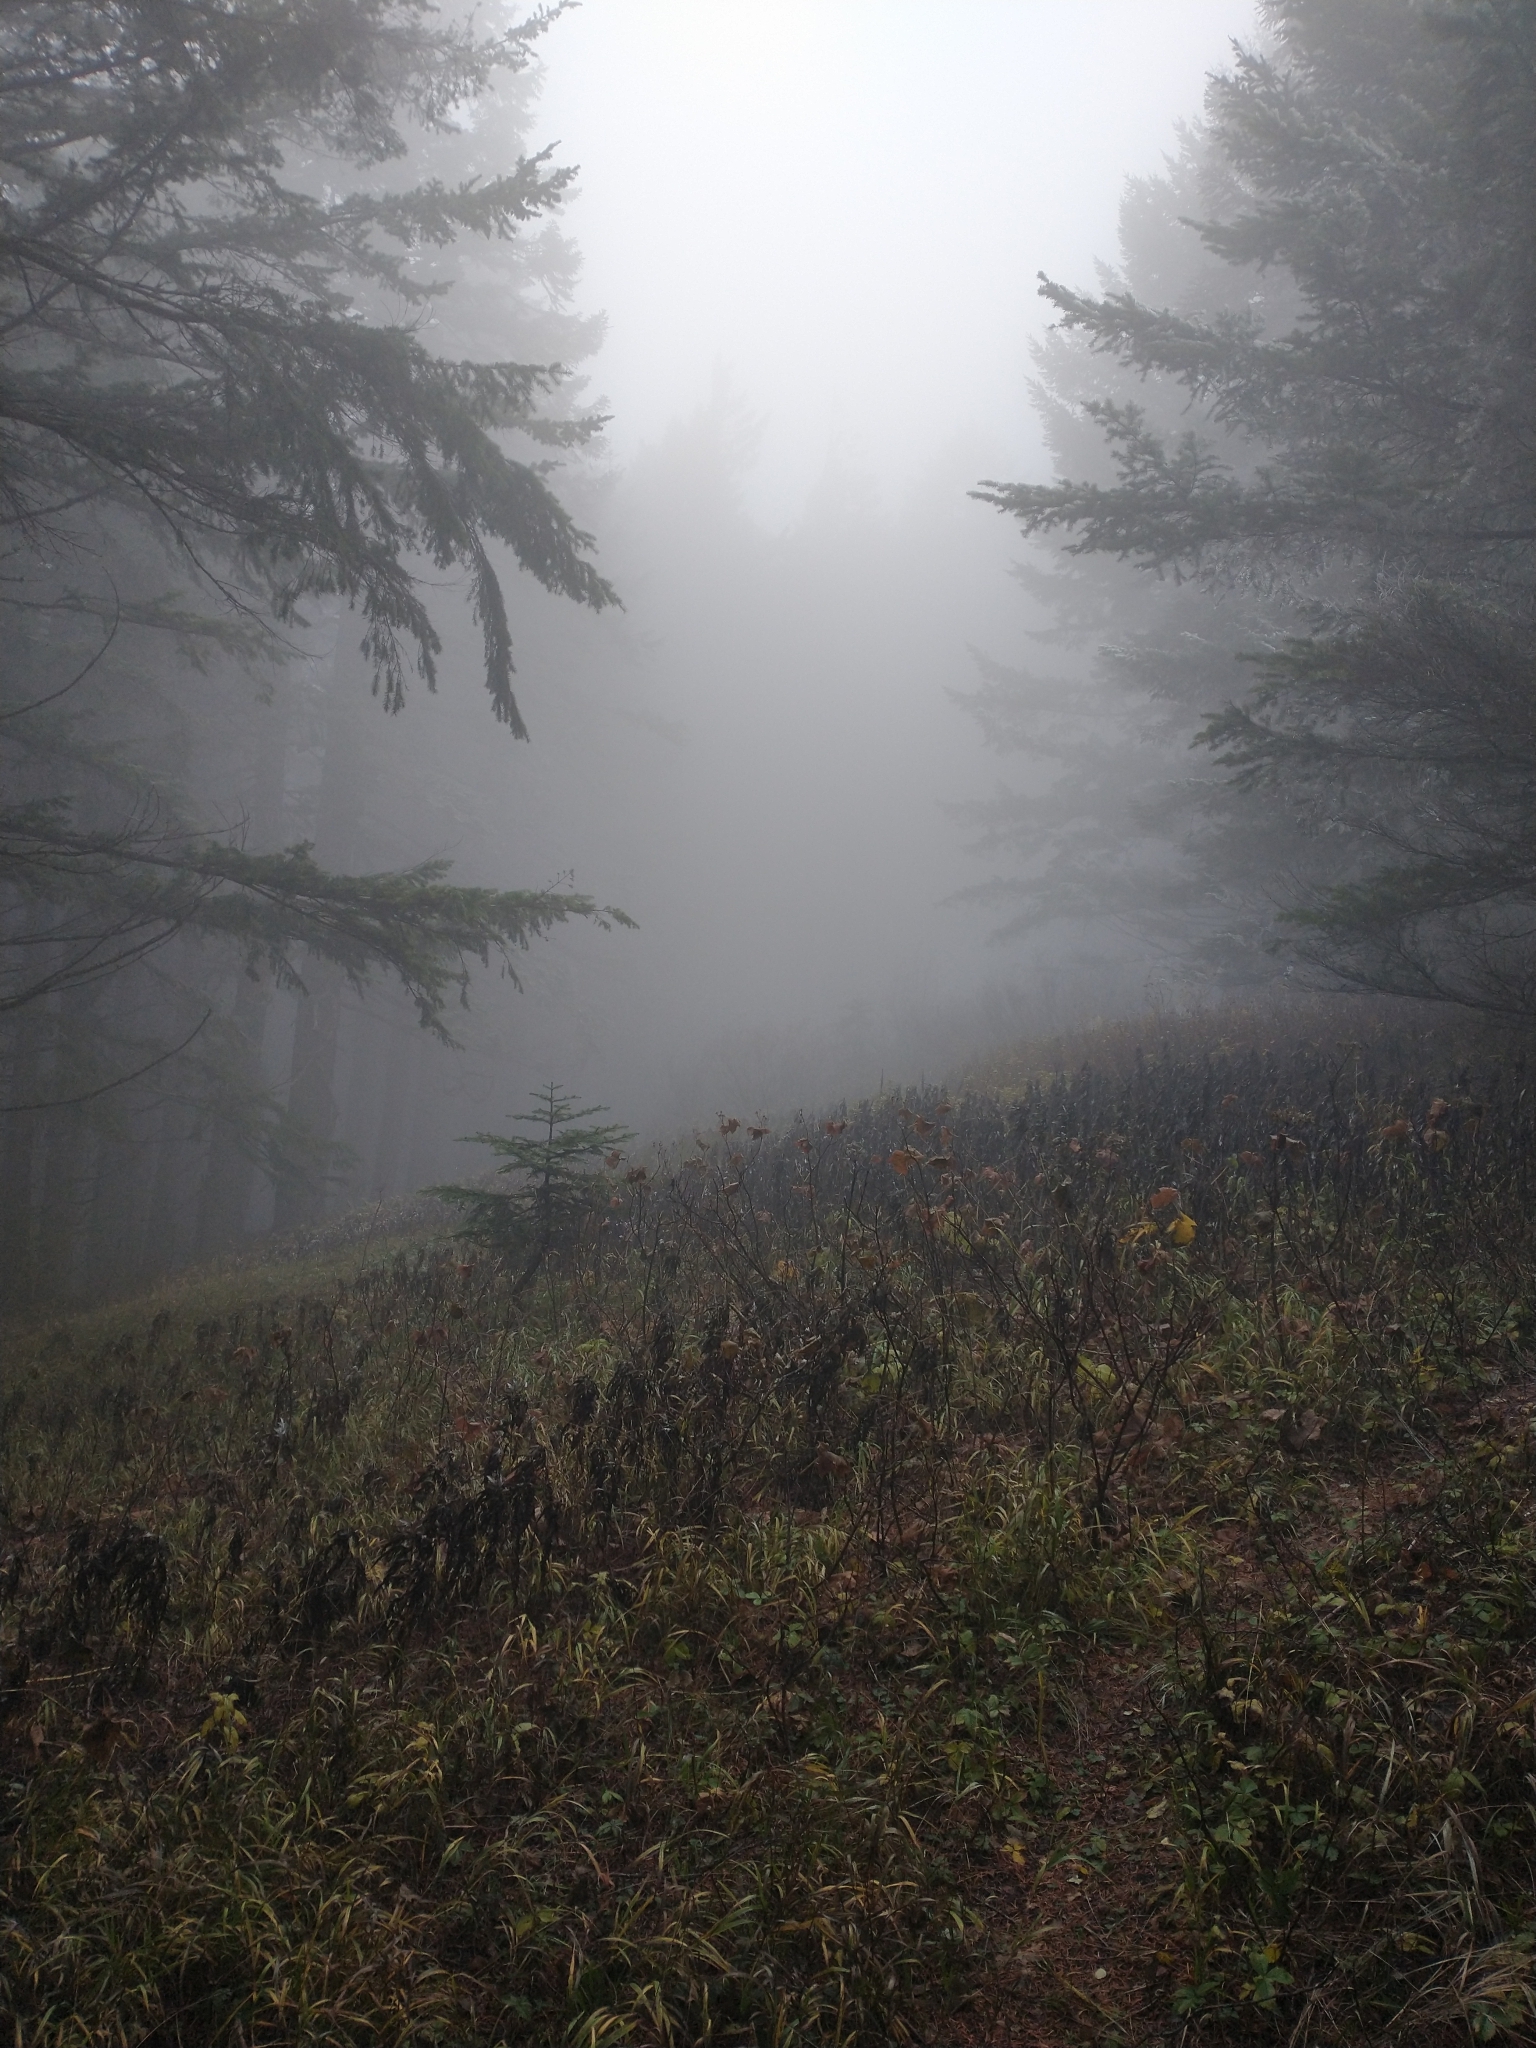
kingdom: Plantae
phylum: Tracheophyta
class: Pinopsida
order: Pinales
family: Pinaceae
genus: Pseudotsuga
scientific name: Pseudotsuga menziesii
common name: Douglas fir
